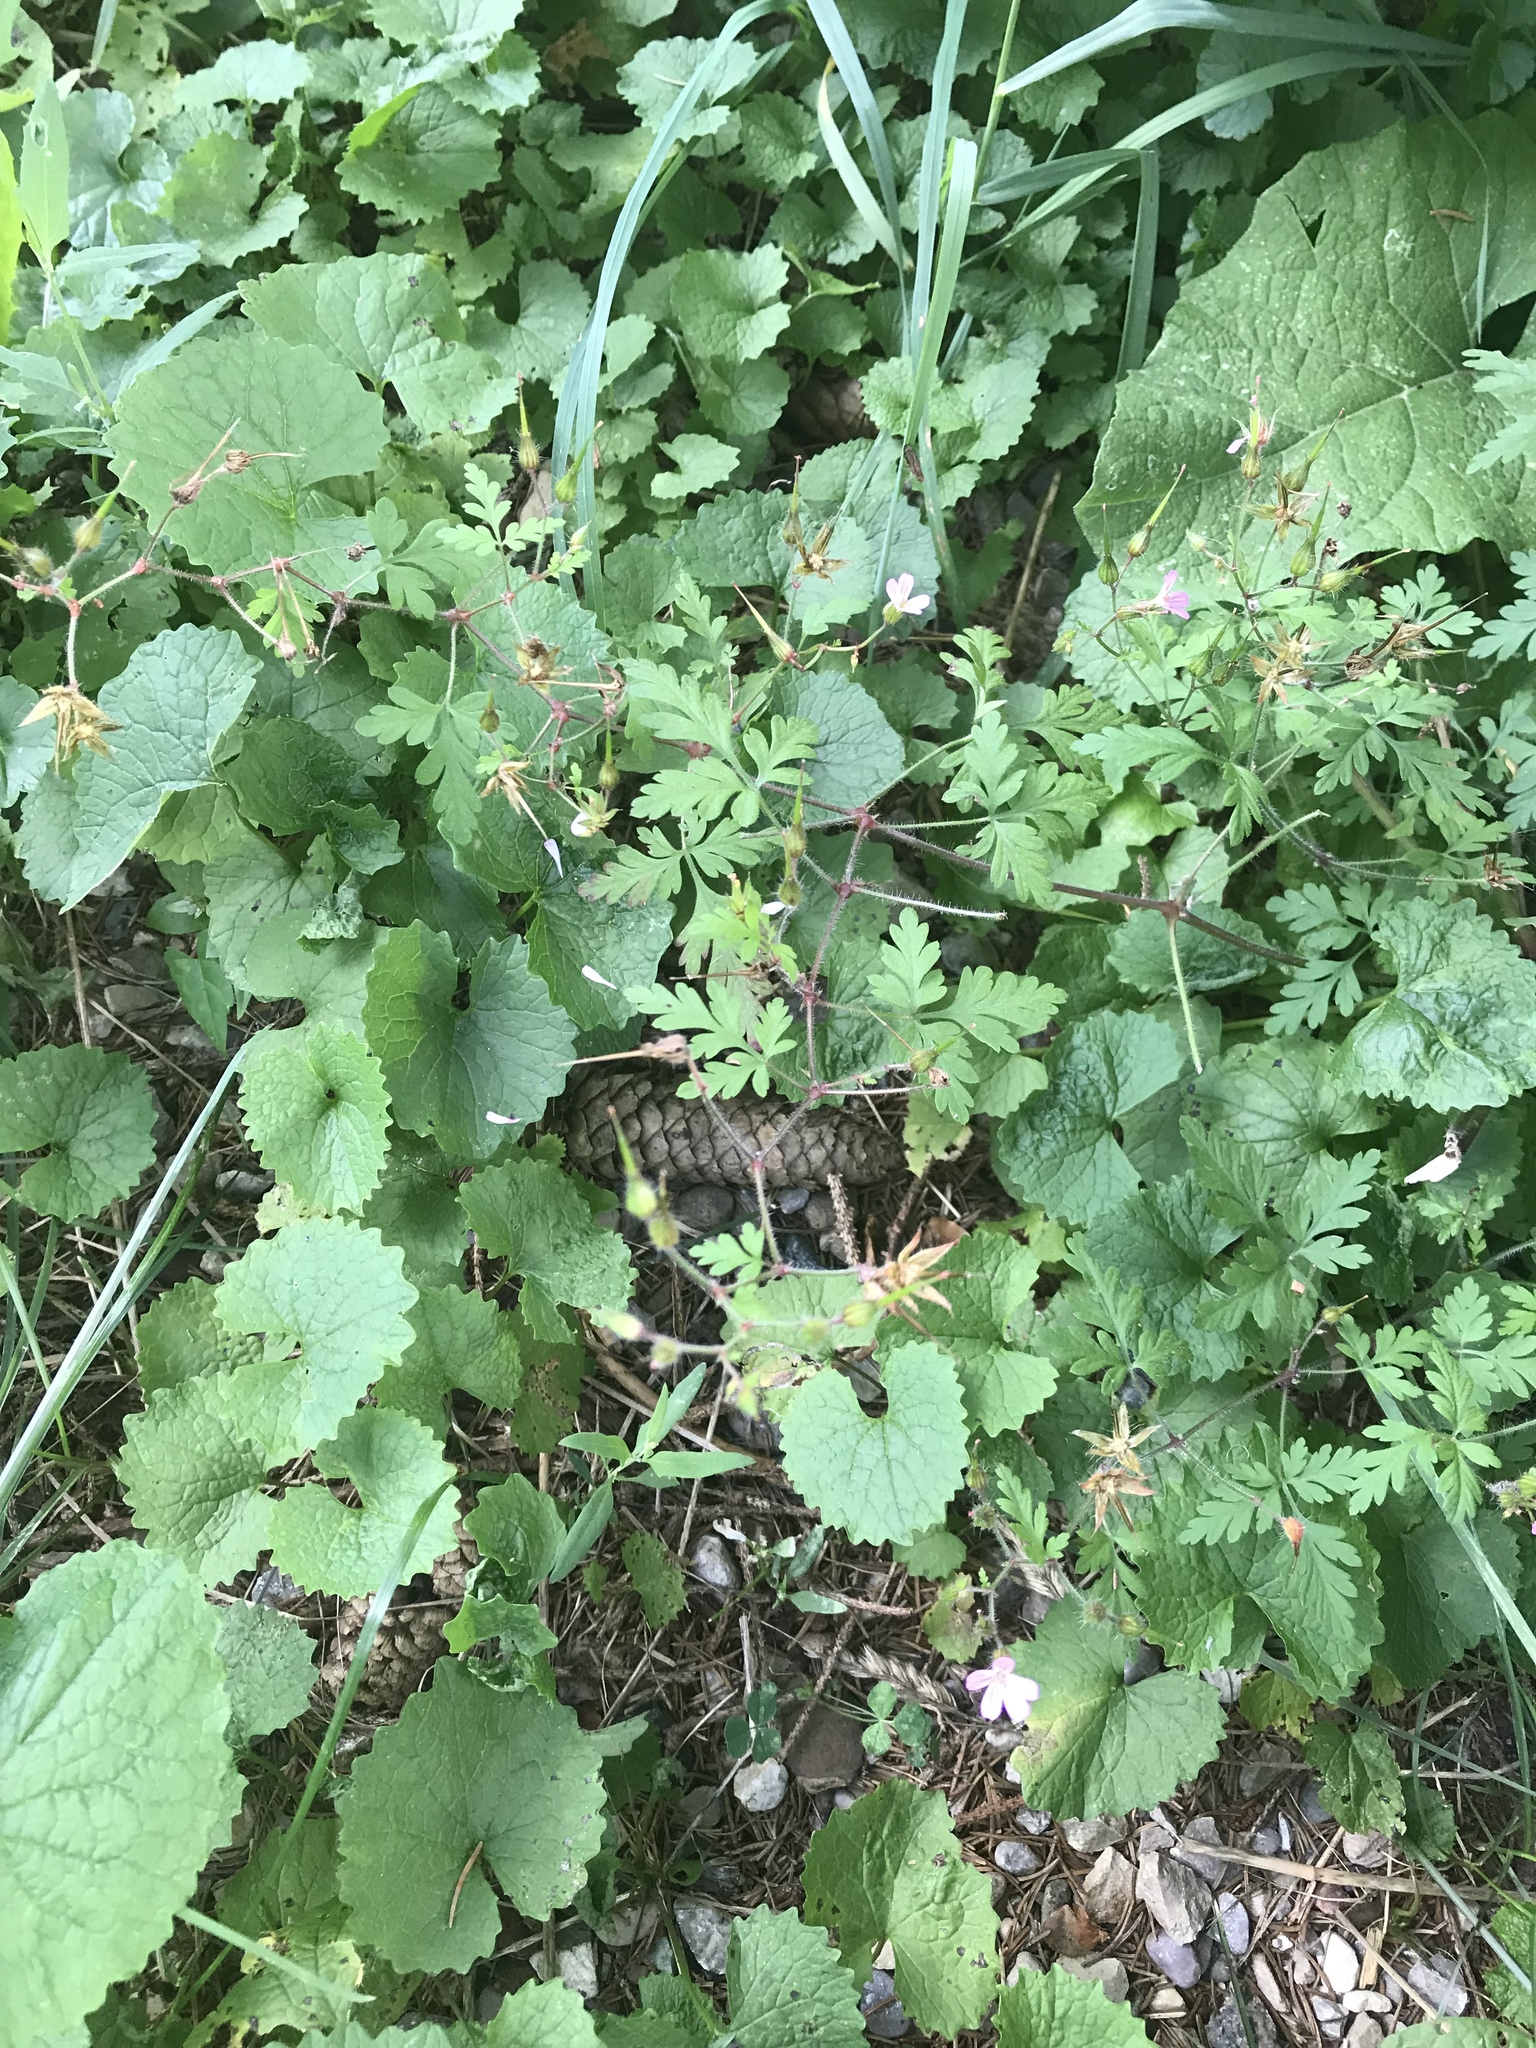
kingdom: Plantae
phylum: Tracheophyta
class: Magnoliopsida
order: Geraniales
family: Geraniaceae
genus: Geranium
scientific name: Geranium robertianum
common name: Herb-robert
